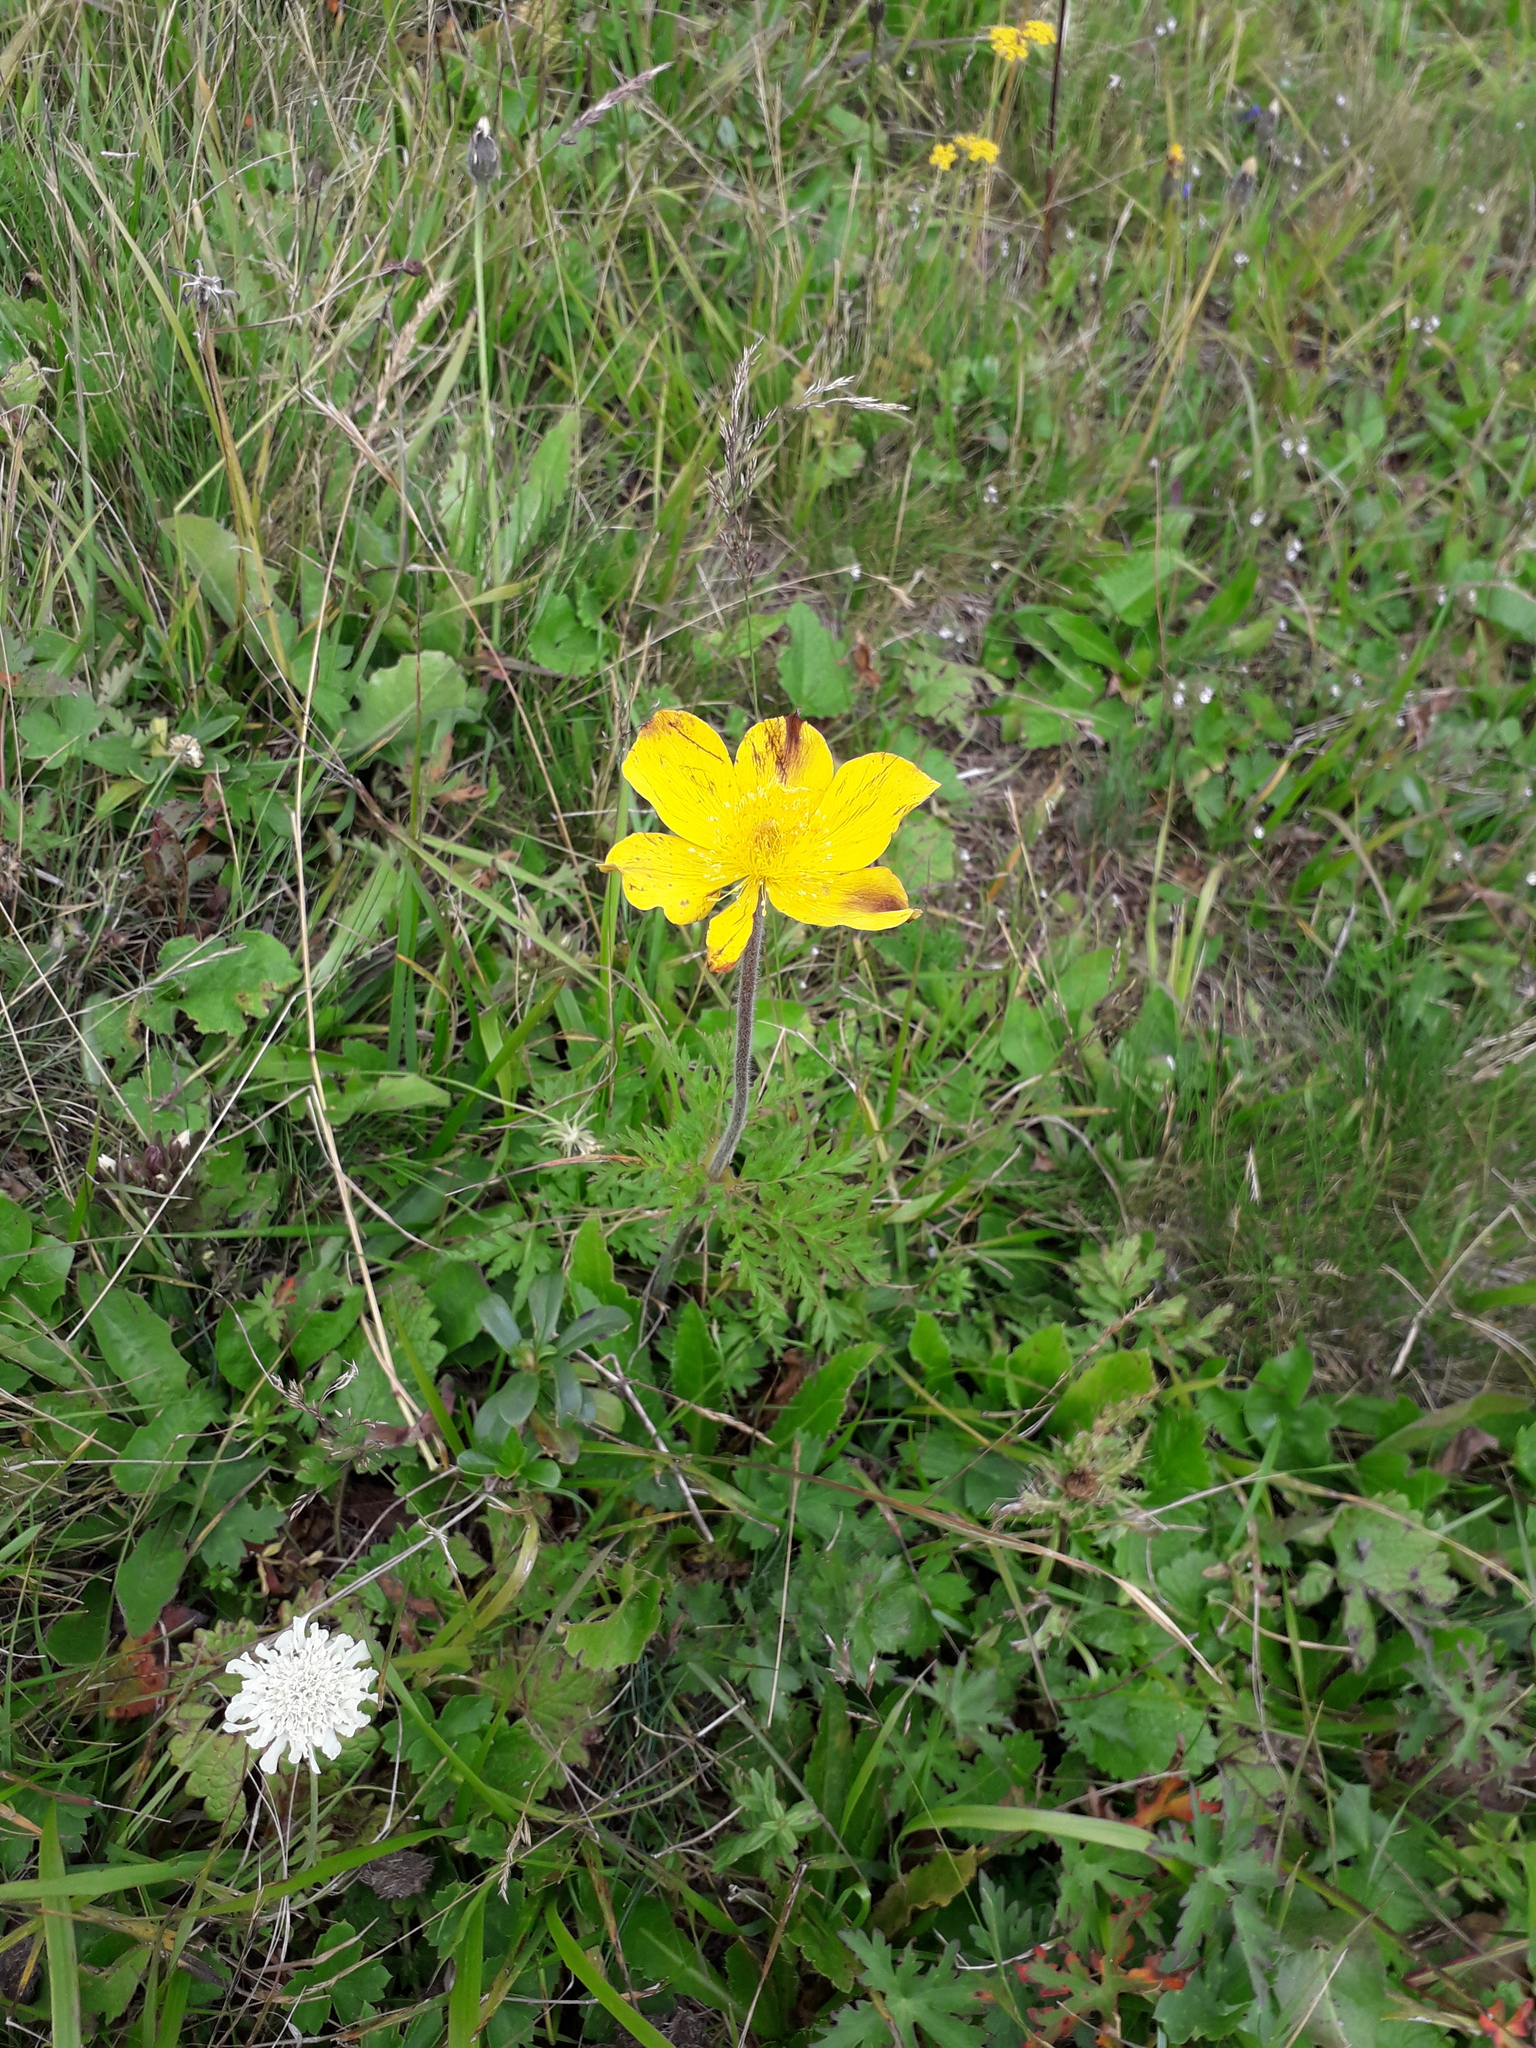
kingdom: Plantae
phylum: Tracheophyta
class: Magnoliopsida
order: Ranunculales
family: Ranunculaceae
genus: Pulsatilla
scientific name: Pulsatilla aurea
